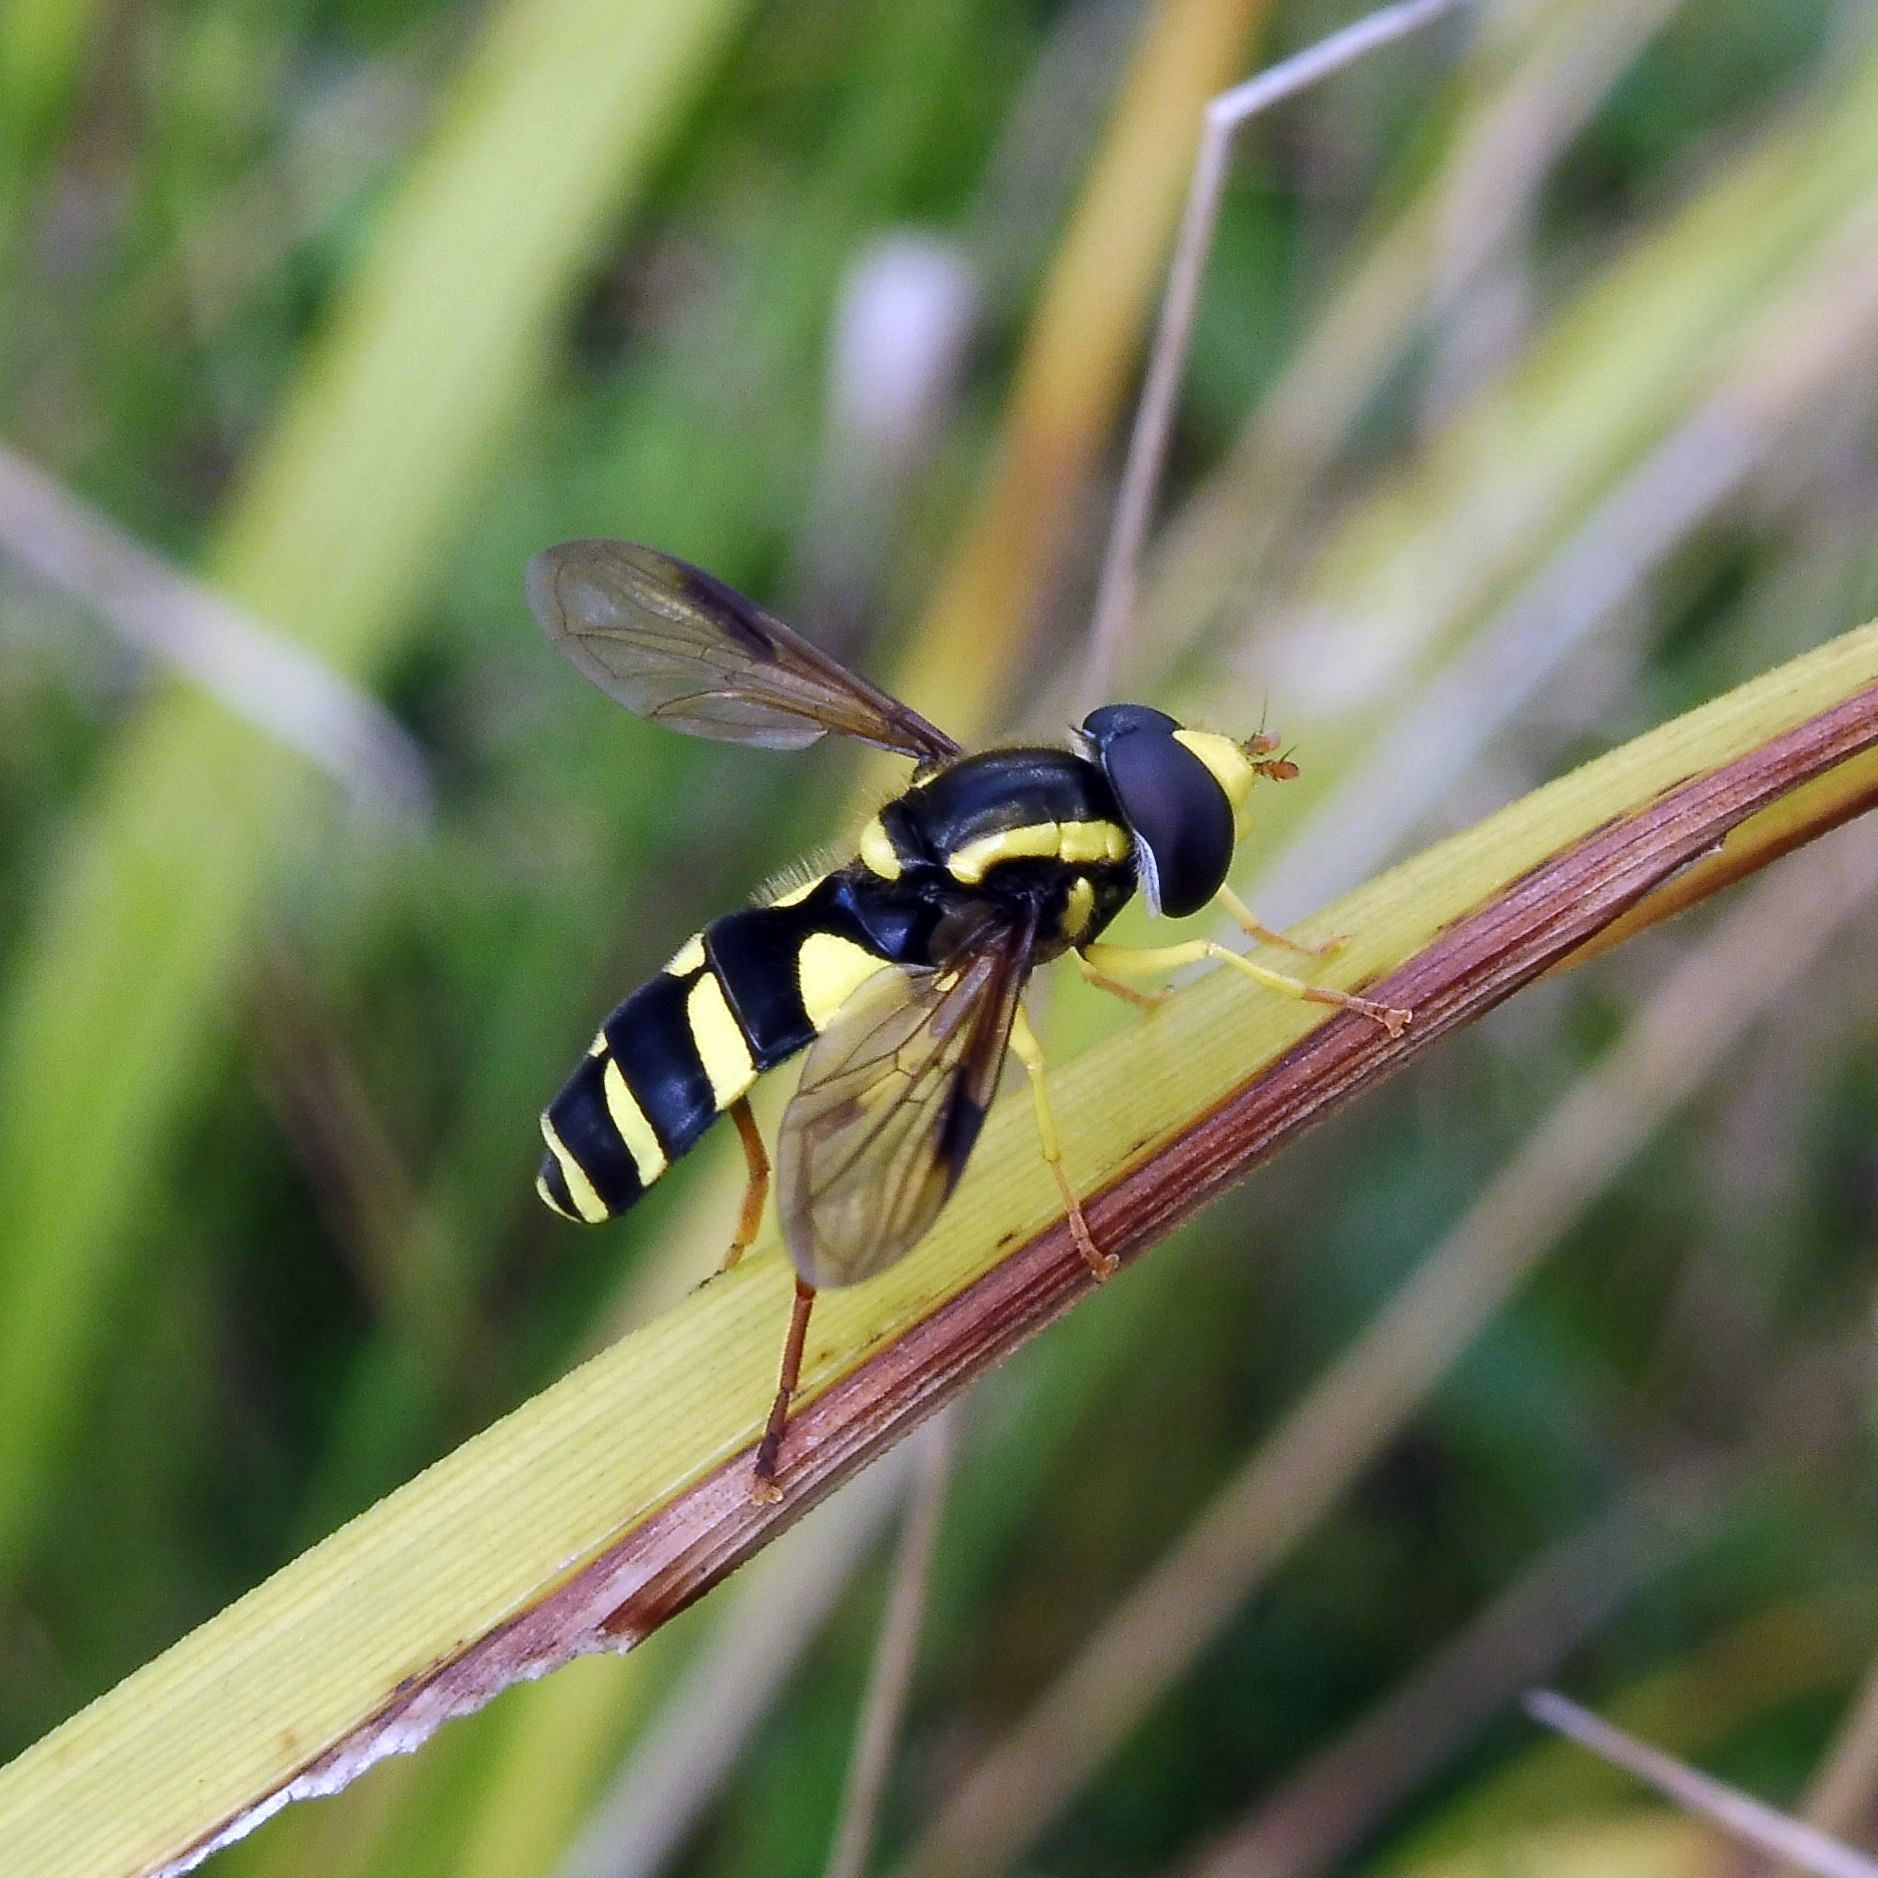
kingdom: Animalia
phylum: Arthropoda
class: Insecta
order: Diptera
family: Syrphidae
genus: Philhelius
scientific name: Philhelius pedissequum
